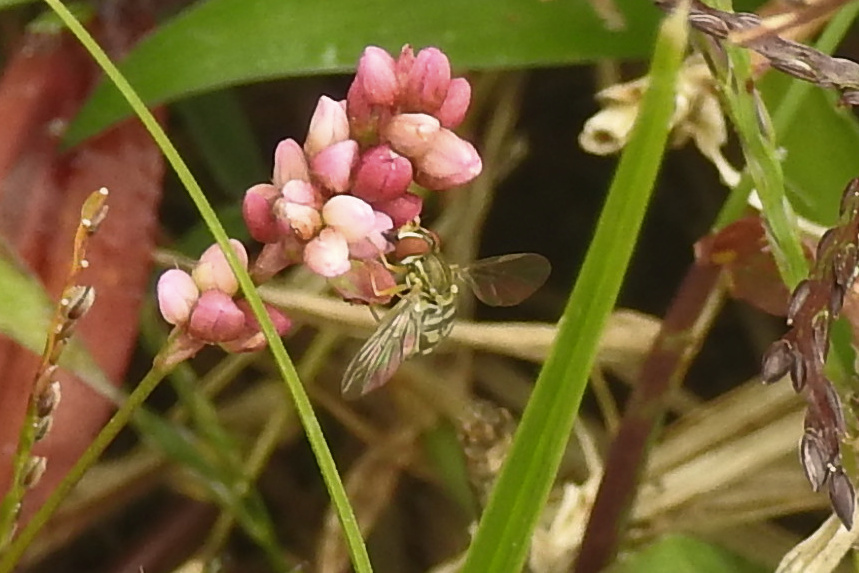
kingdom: Animalia
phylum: Arthropoda
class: Insecta
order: Diptera
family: Syrphidae
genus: Toxomerus
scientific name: Toxomerus marginatus
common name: Syrphid fly
